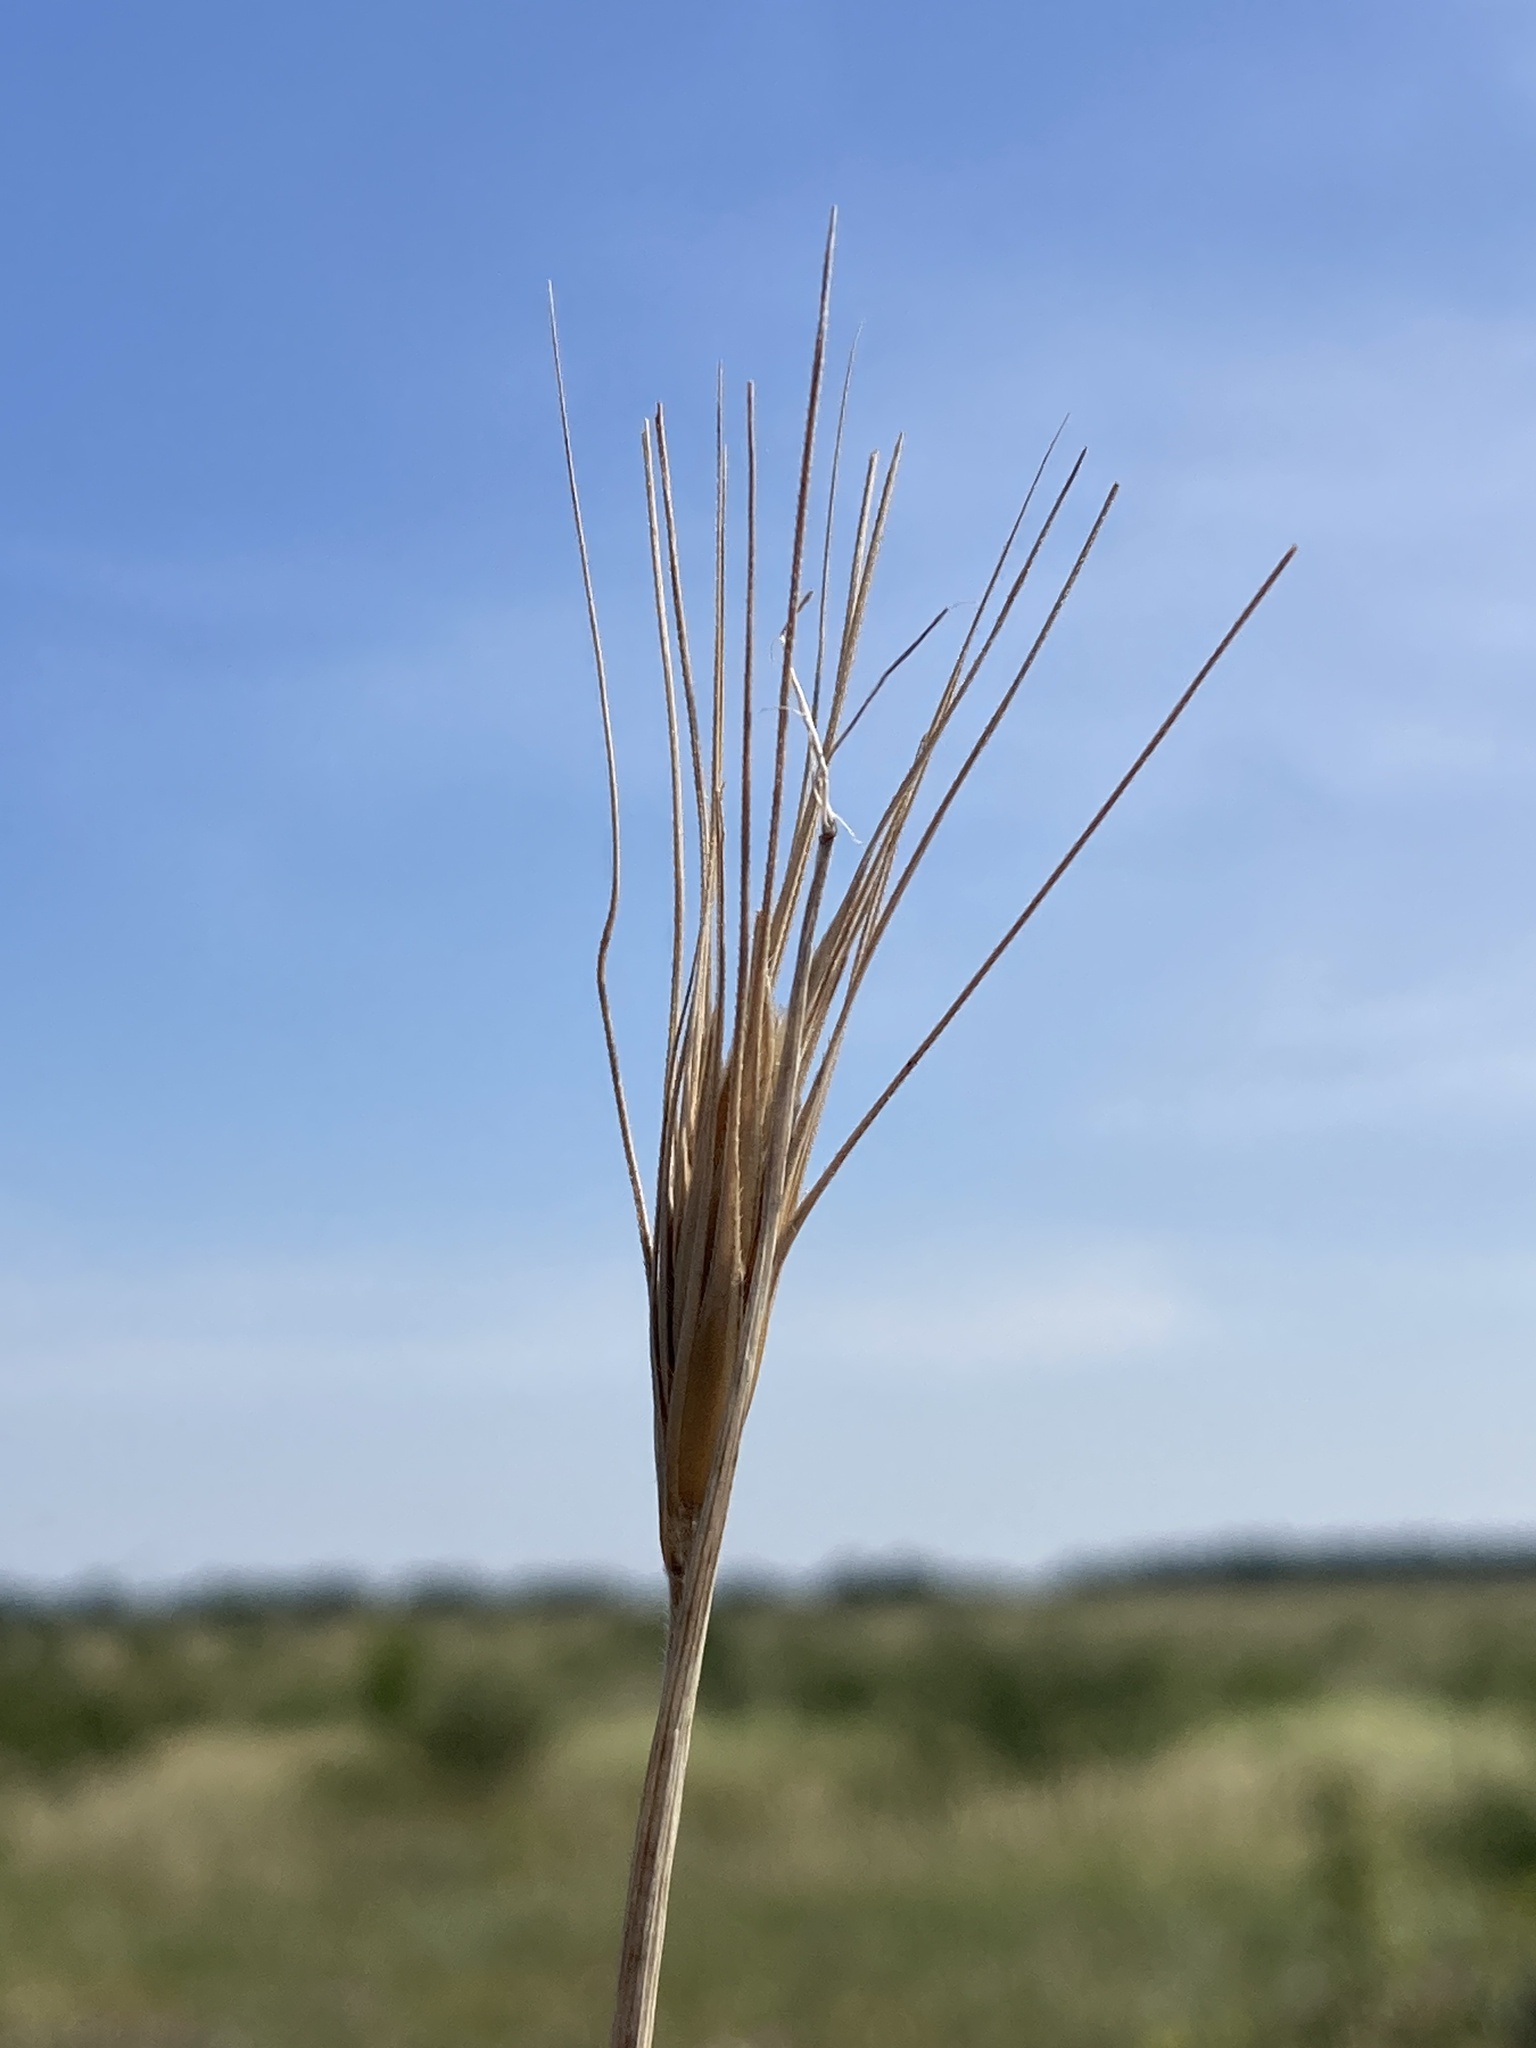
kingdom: Plantae
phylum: Tracheophyta
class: Liliopsida
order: Poales
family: Poaceae
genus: Secale
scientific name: Secale sylvestre
